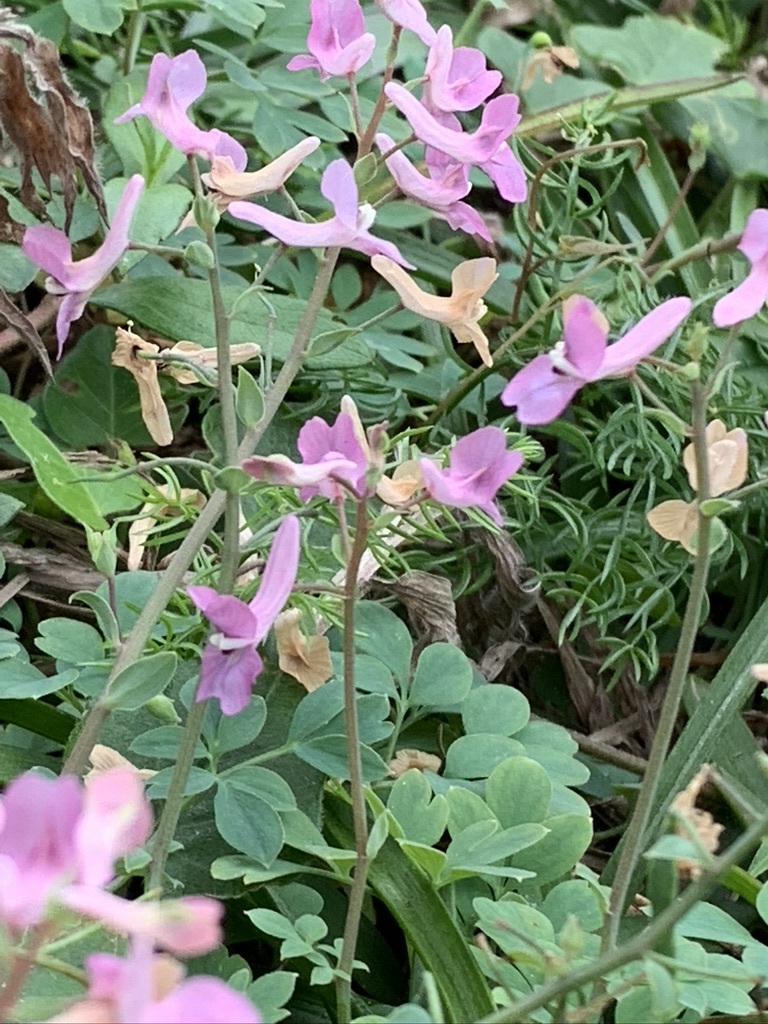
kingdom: Plantae
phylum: Tracheophyta
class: Magnoliopsida
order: Ranunculales
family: Papaveraceae
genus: Corydalis
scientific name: Corydalis decumbens
